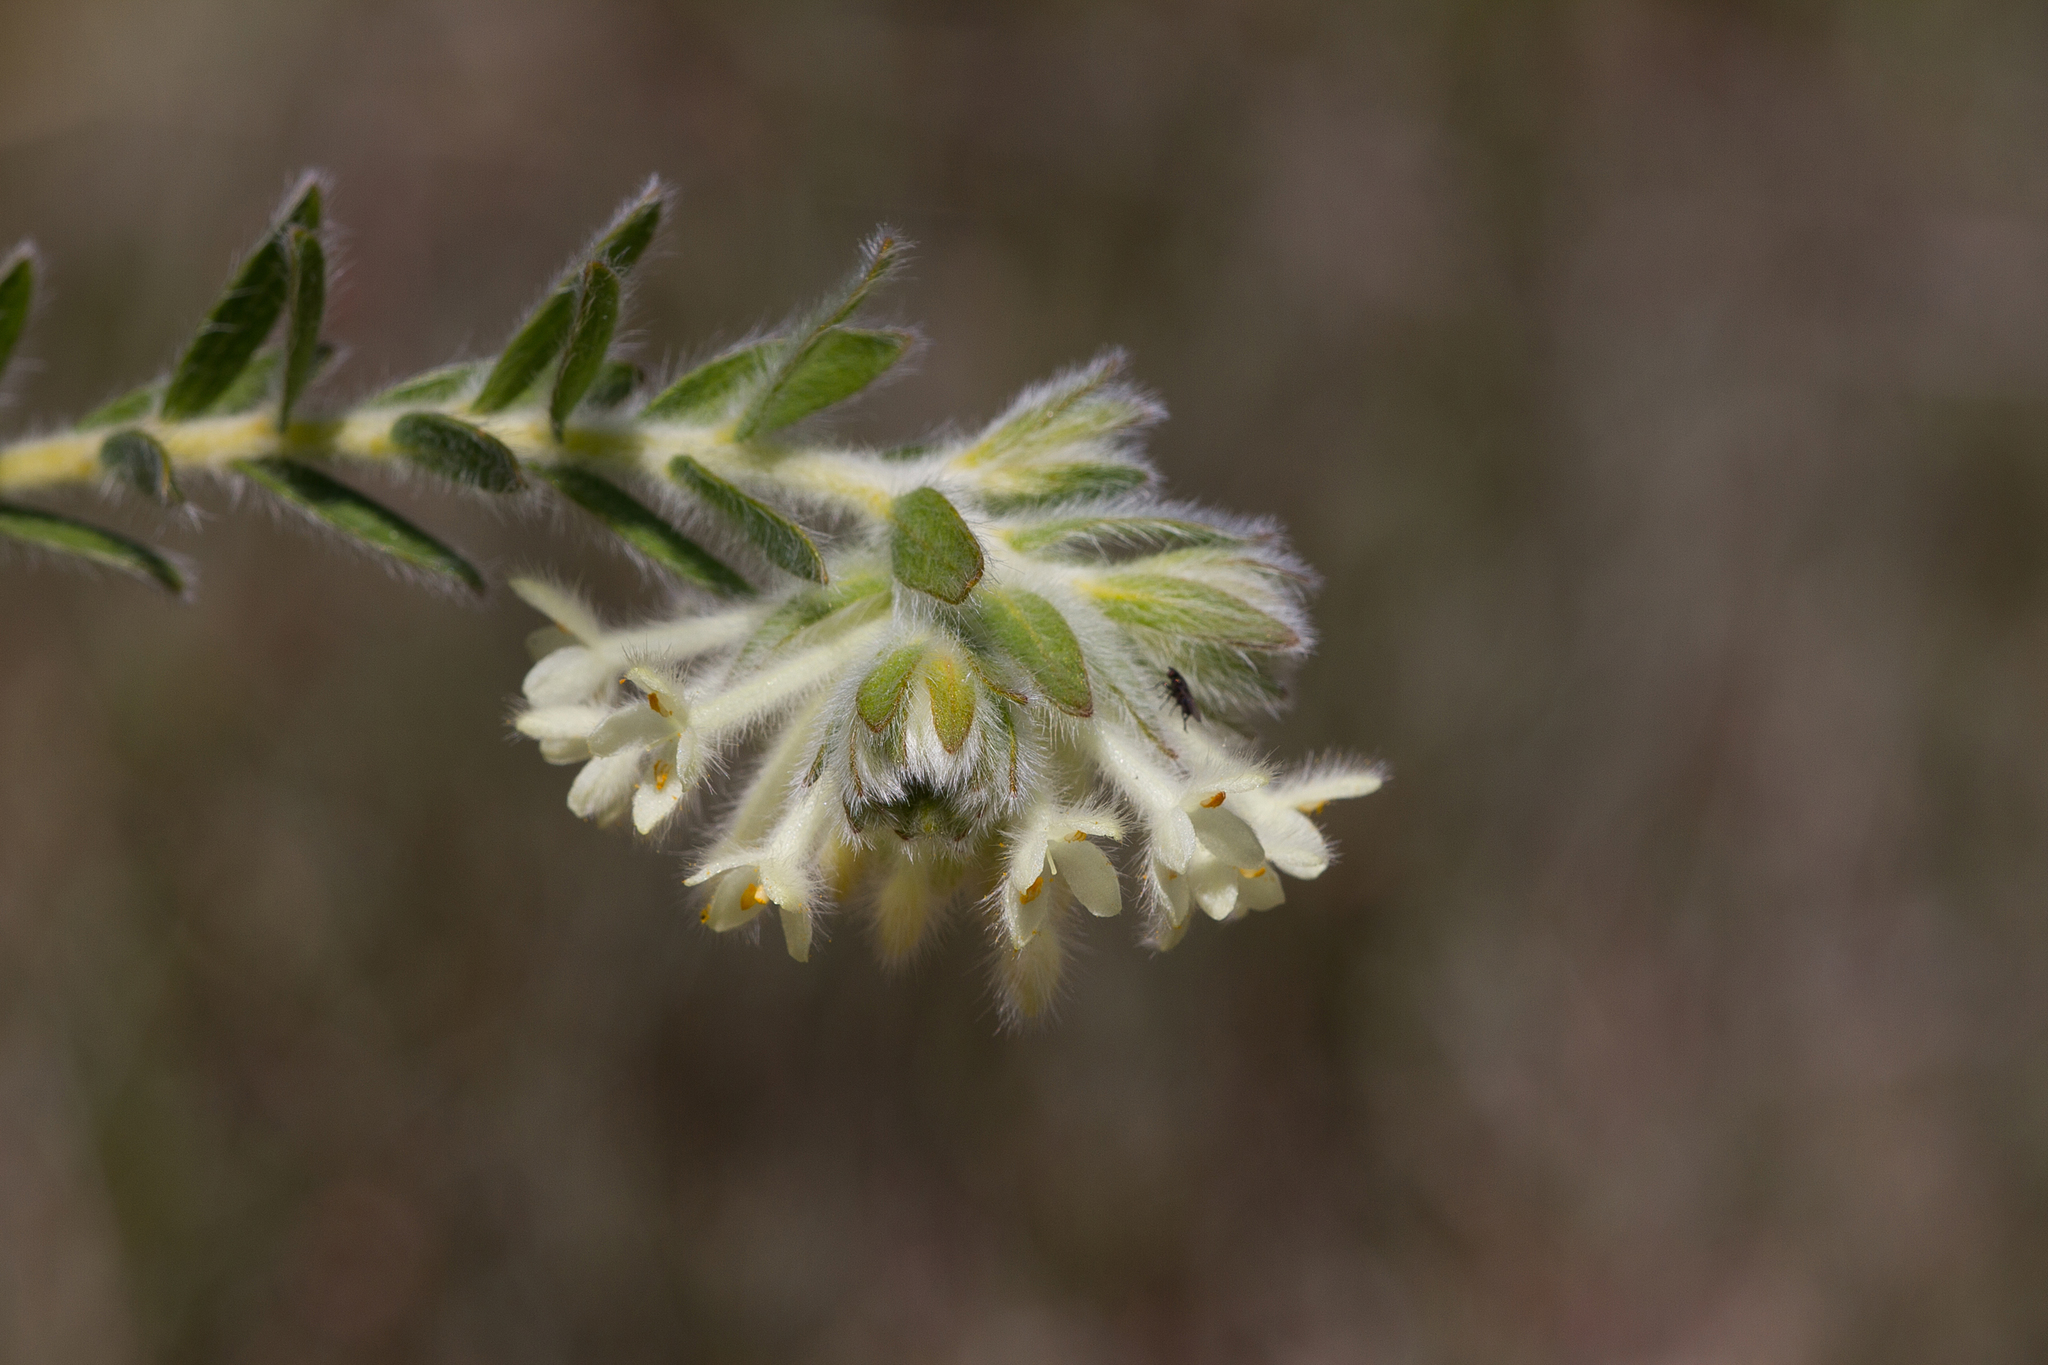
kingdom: Plantae
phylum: Tracheophyta
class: Magnoliopsida
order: Malvales
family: Thymelaeaceae
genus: Pimelea
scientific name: Pimelea octophylla
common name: Woolly riceflower
